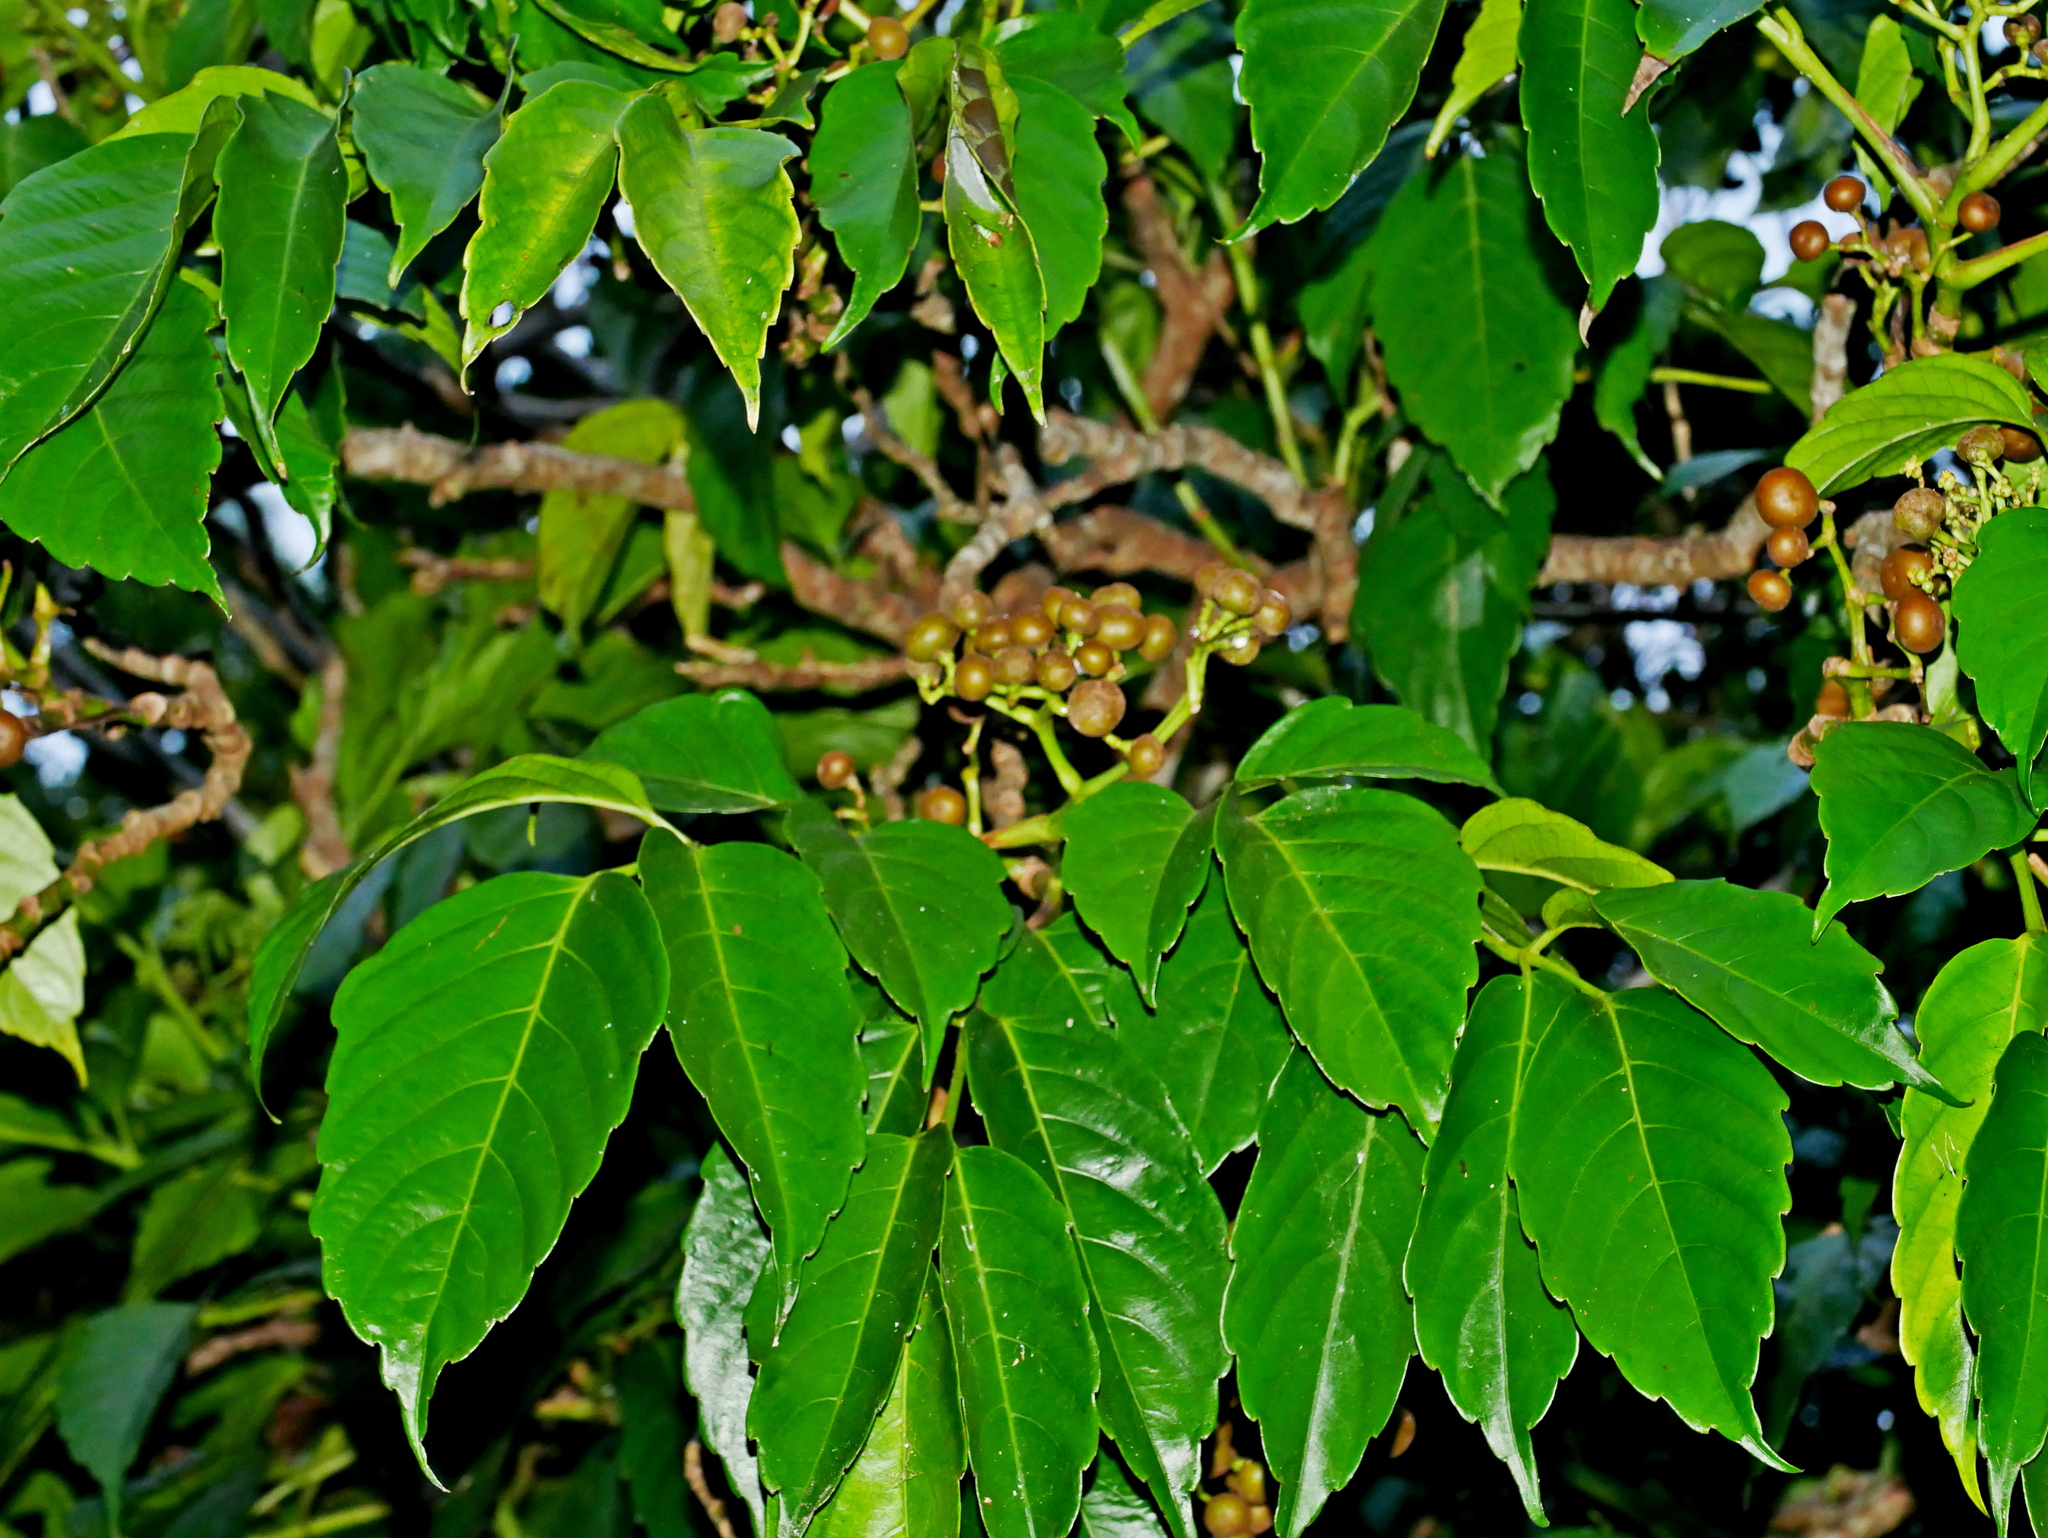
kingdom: Plantae
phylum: Tracheophyta
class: Magnoliopsida
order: Vitales
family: Vitaceae
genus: Leea
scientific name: Leea philippinensis
